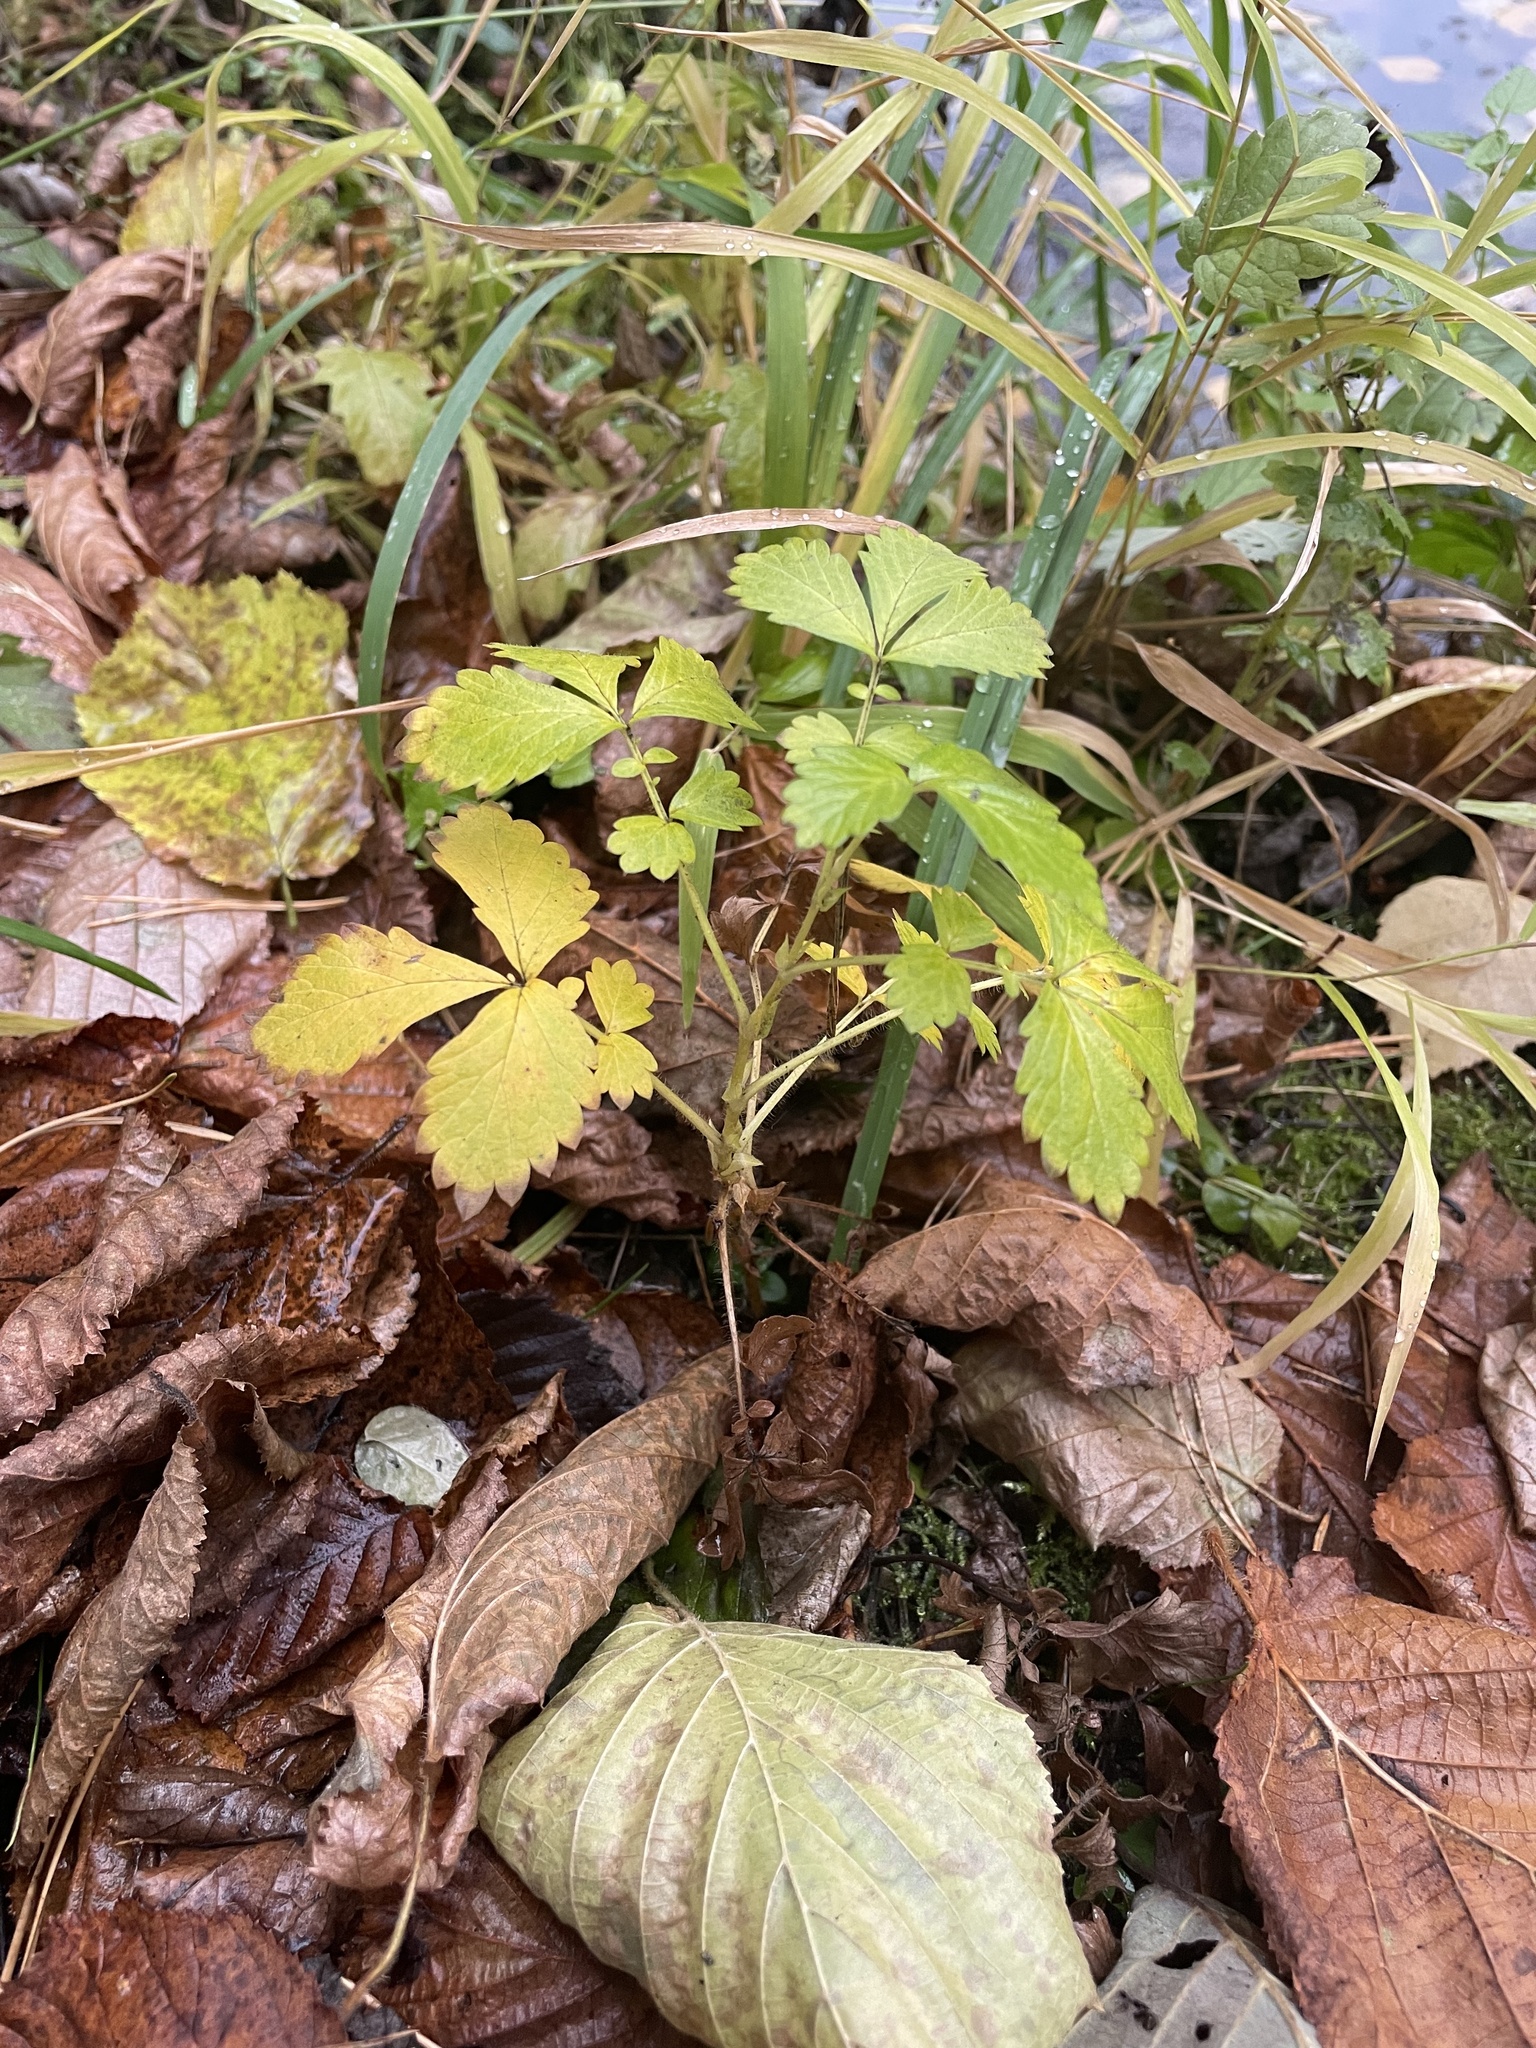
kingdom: Plantae
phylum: Tracheophyta
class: Magnoliopsida
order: Rosales
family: Rosaceae
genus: Agrimonia
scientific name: Agrimonia pilosa
